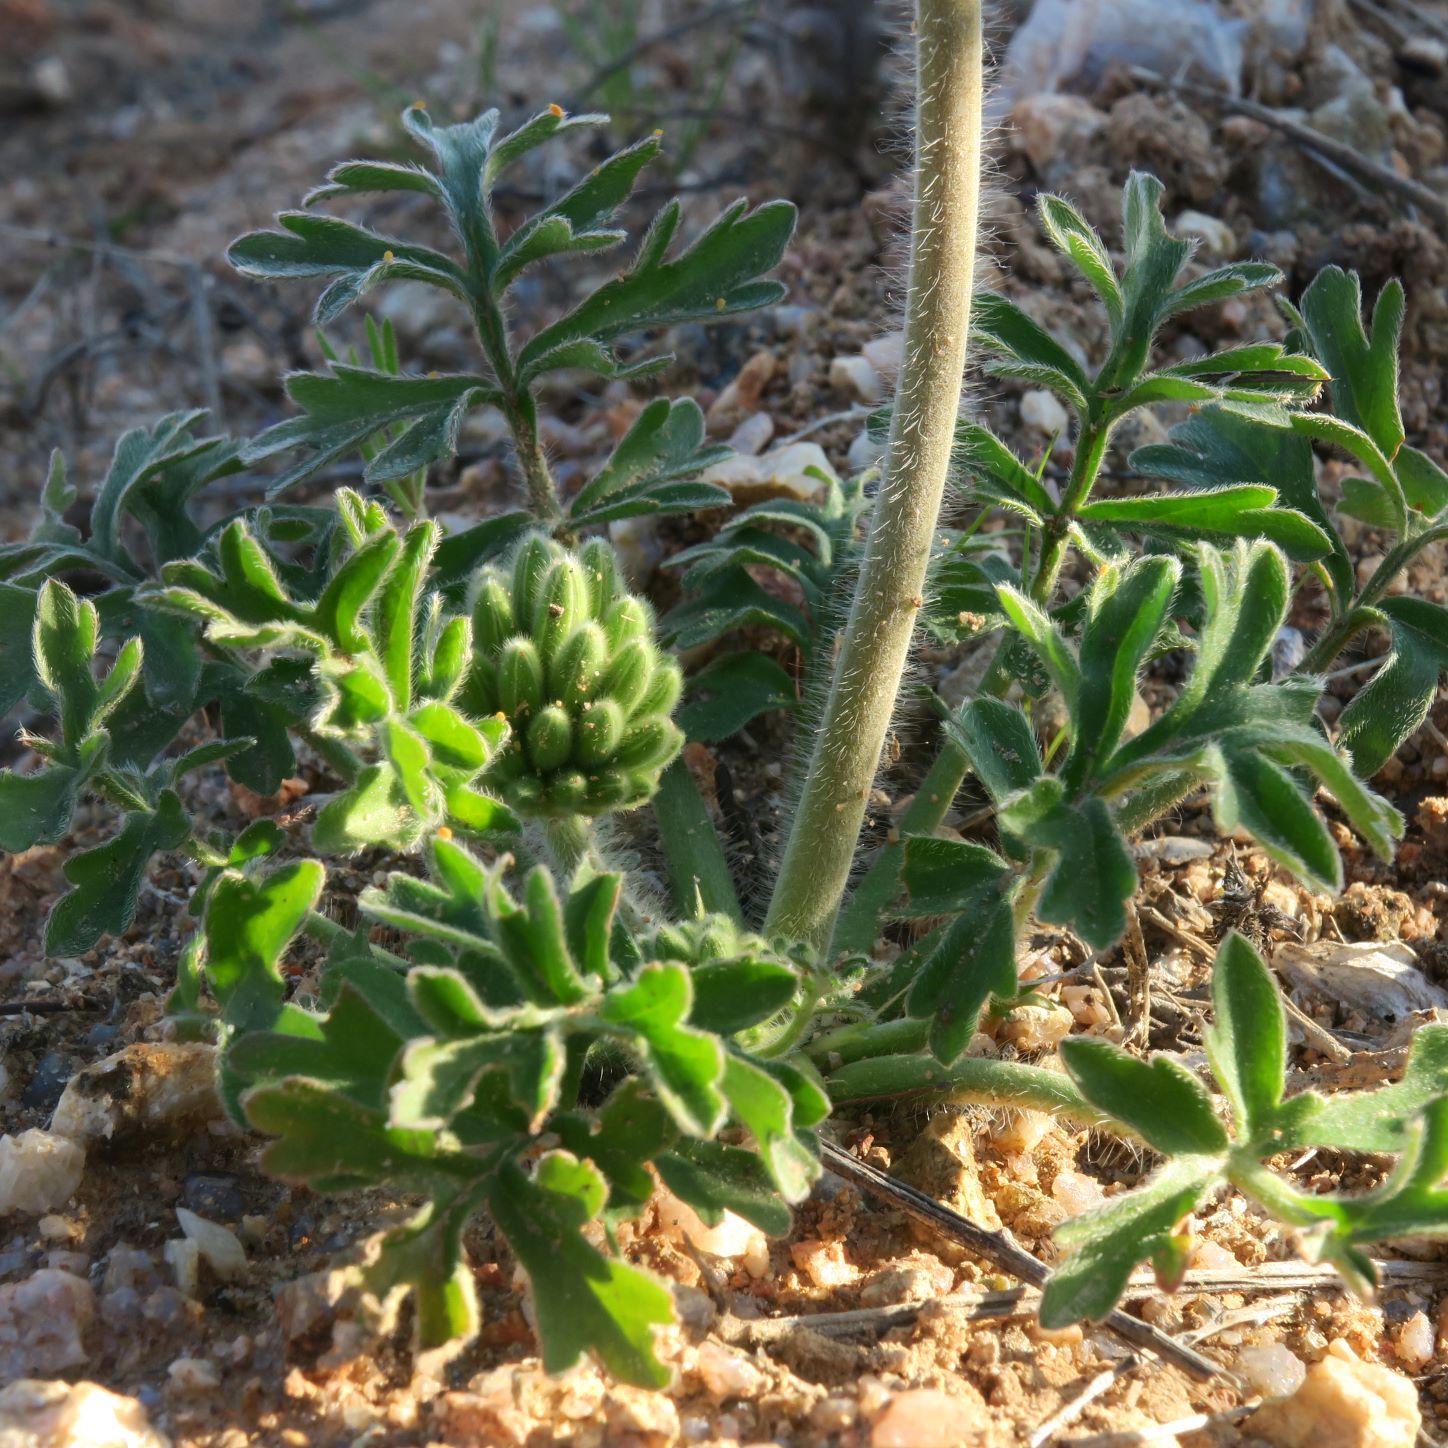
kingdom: Plantae
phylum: Tracheophyta
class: Magnoliopsida
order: Geraniales
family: Geraniaceae
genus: Pelargonium
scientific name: Pelargonium incrassatum
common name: Namaqualand beauty
